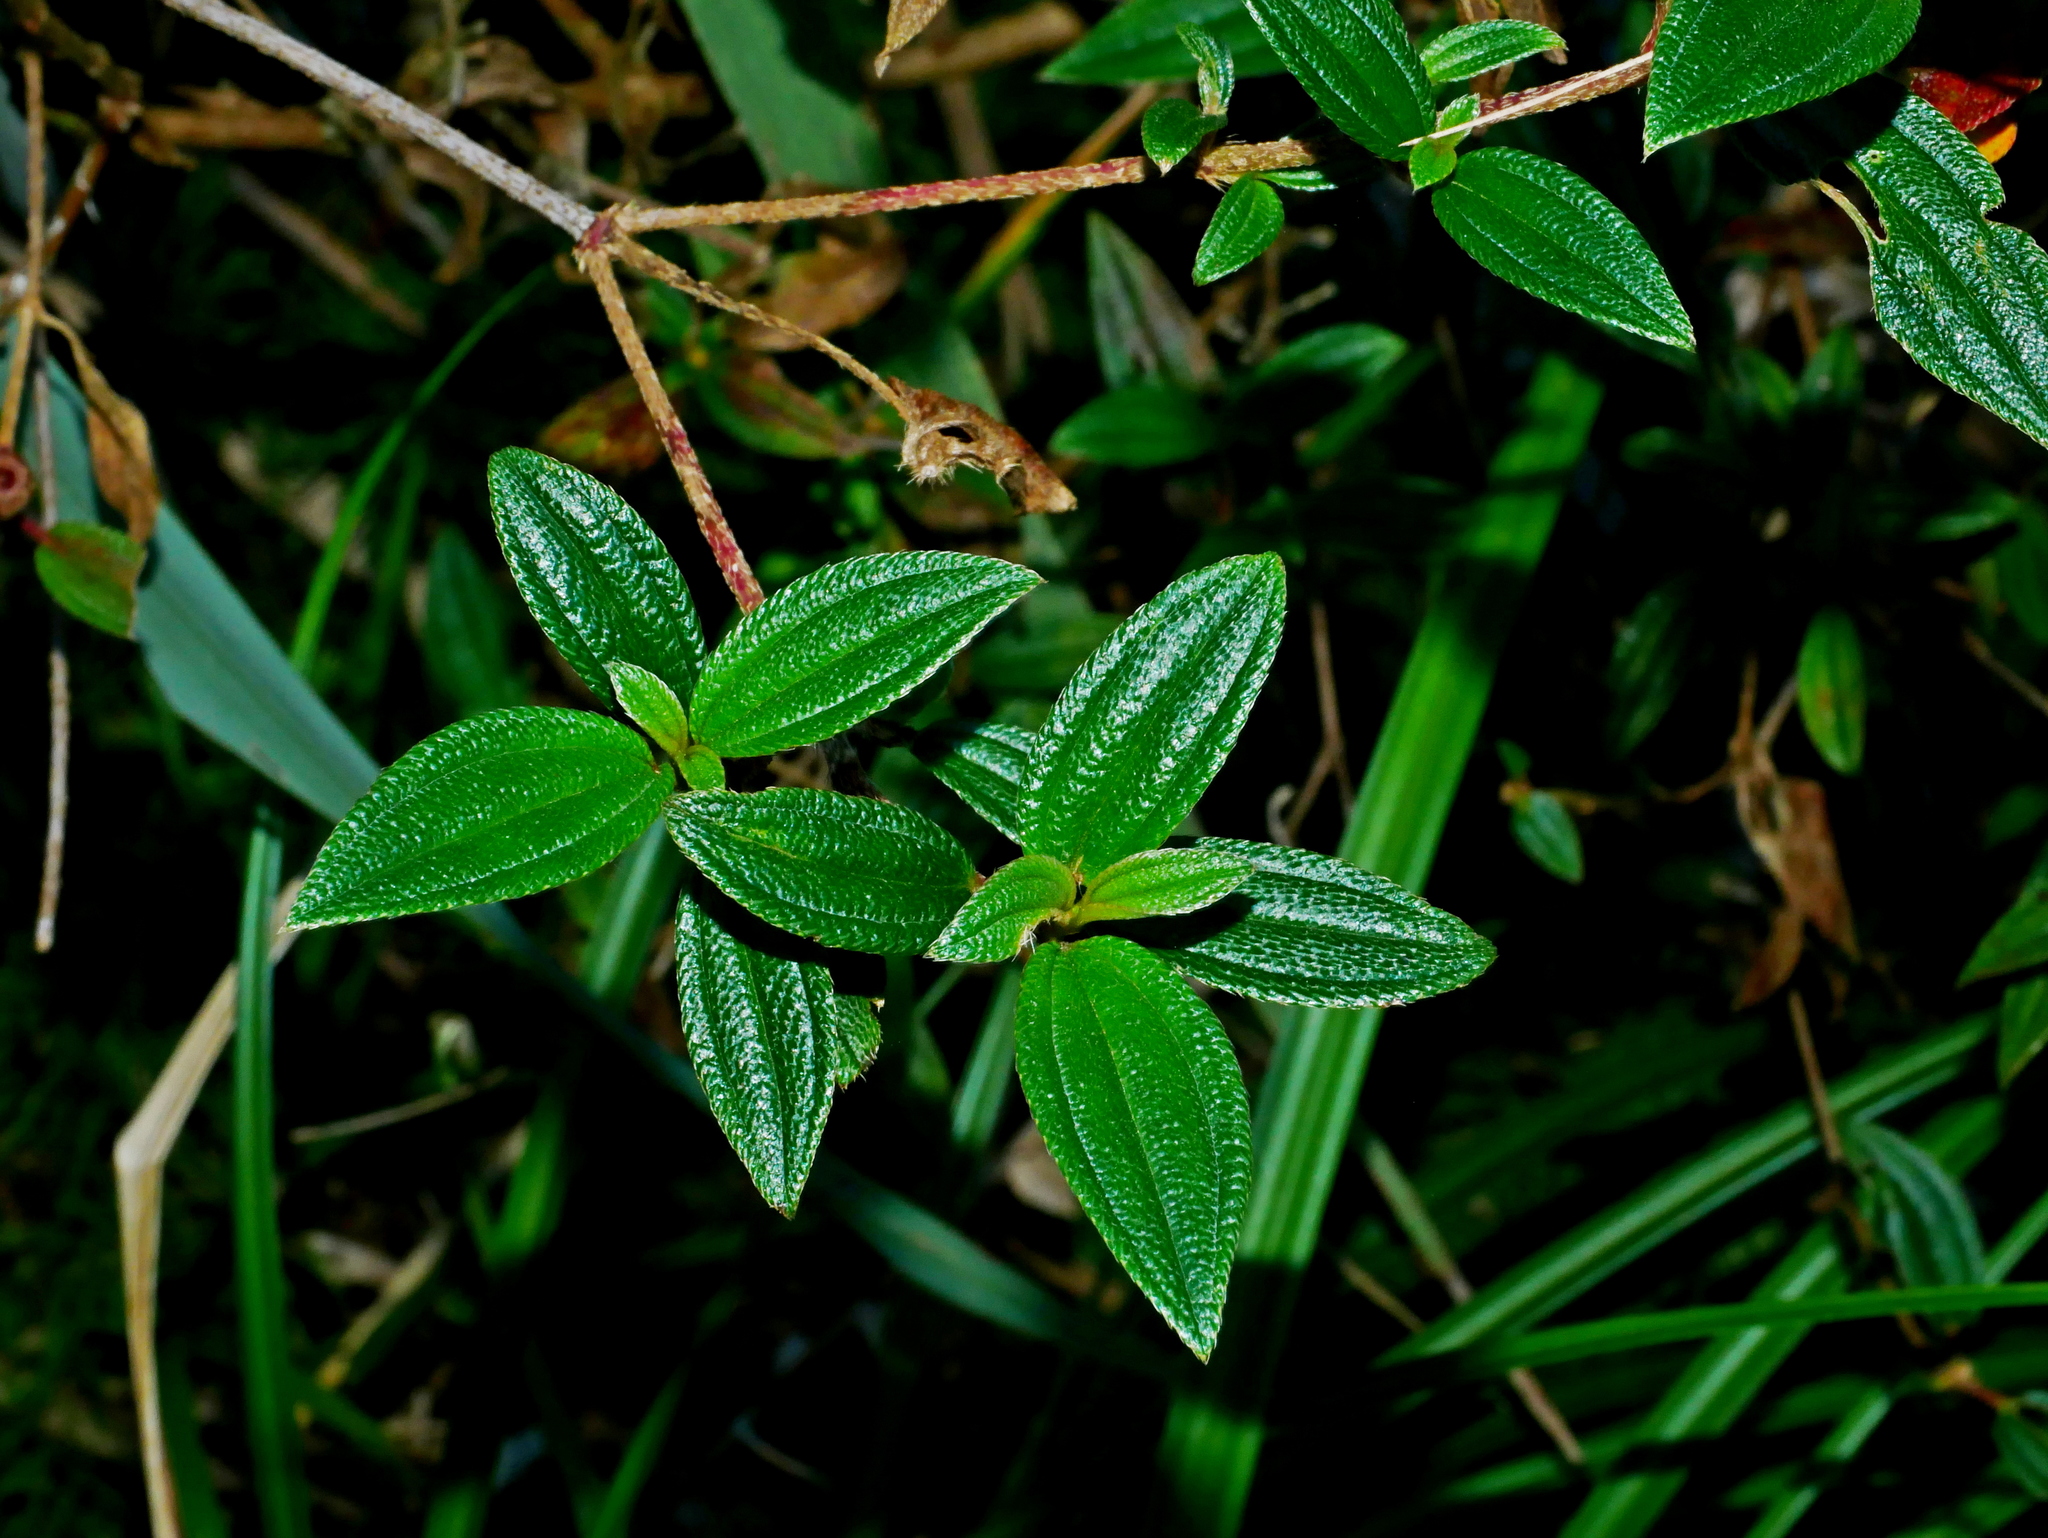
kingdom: Plantae
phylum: Tracheophyta
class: Magnoliopsida
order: Myrtales
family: Melastomataceae
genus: Melastoma
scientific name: Melastoma scaberrima
